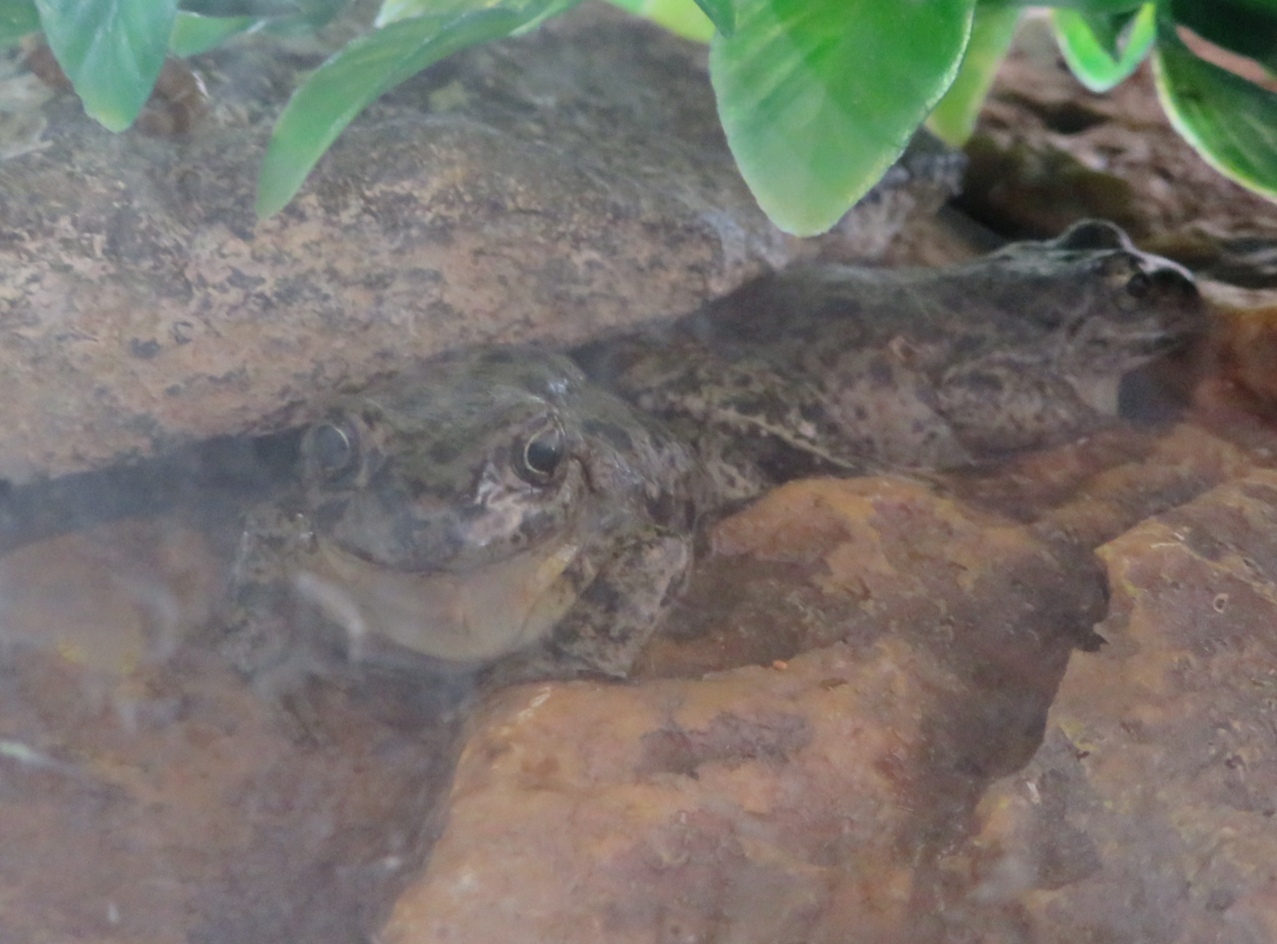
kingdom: Animalia
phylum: Chordata
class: Amphibia
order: Anura
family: Batrachylidae
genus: Atelognathus
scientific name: Atelognathus patagonicus
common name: Patagonia frog
